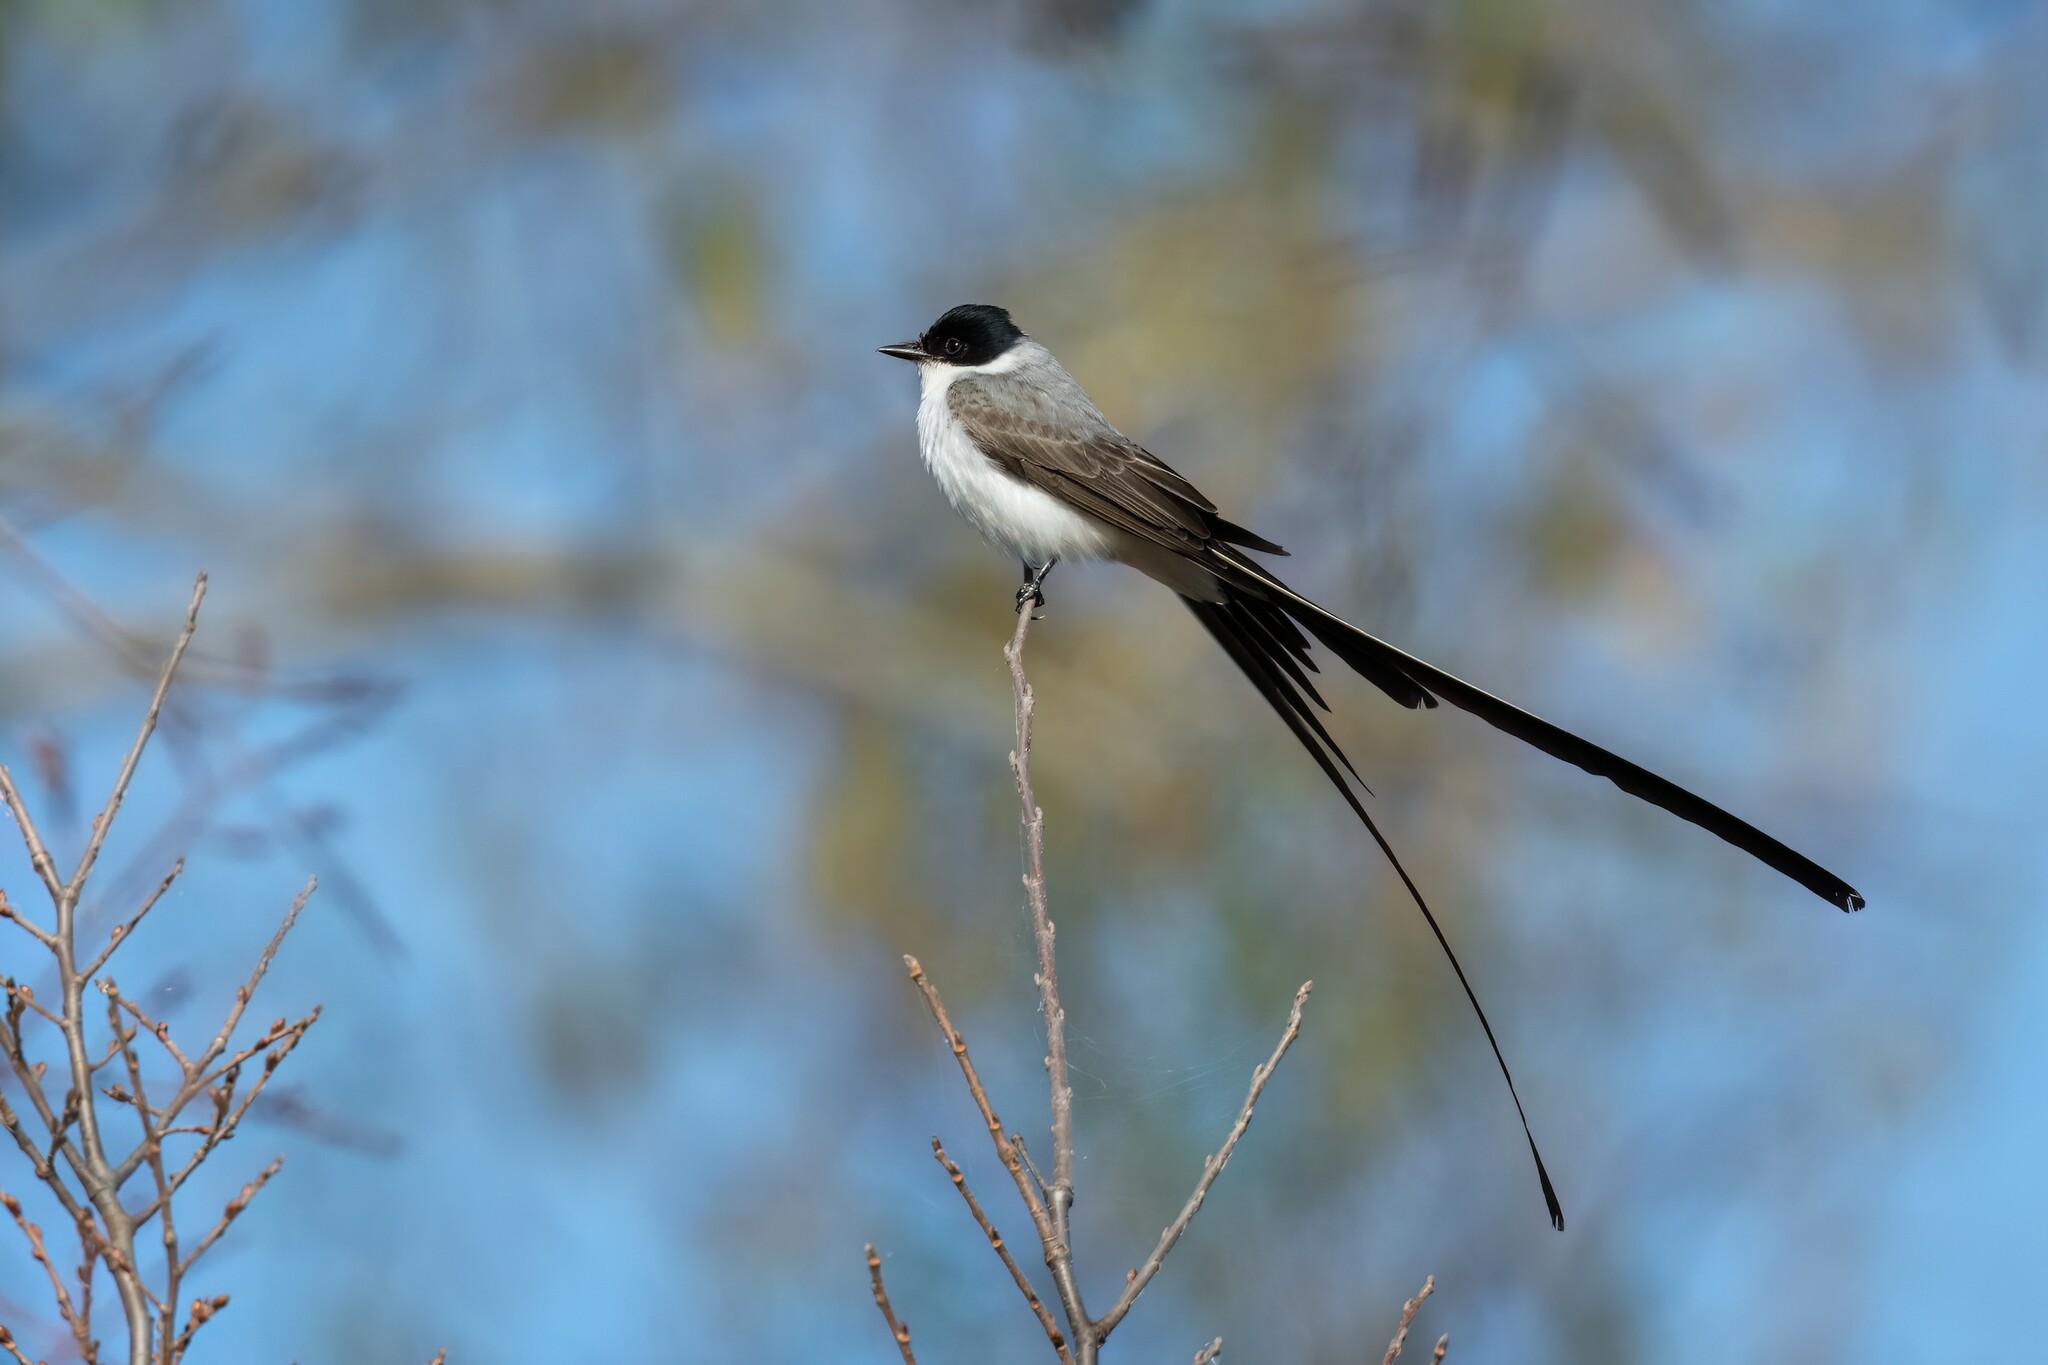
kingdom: Animalia
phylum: Chordata
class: Aves
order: Passeriformes
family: Tyrannidae
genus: Tyrannus
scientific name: Tyrannus savana
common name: Fork-tailed flycatcher
